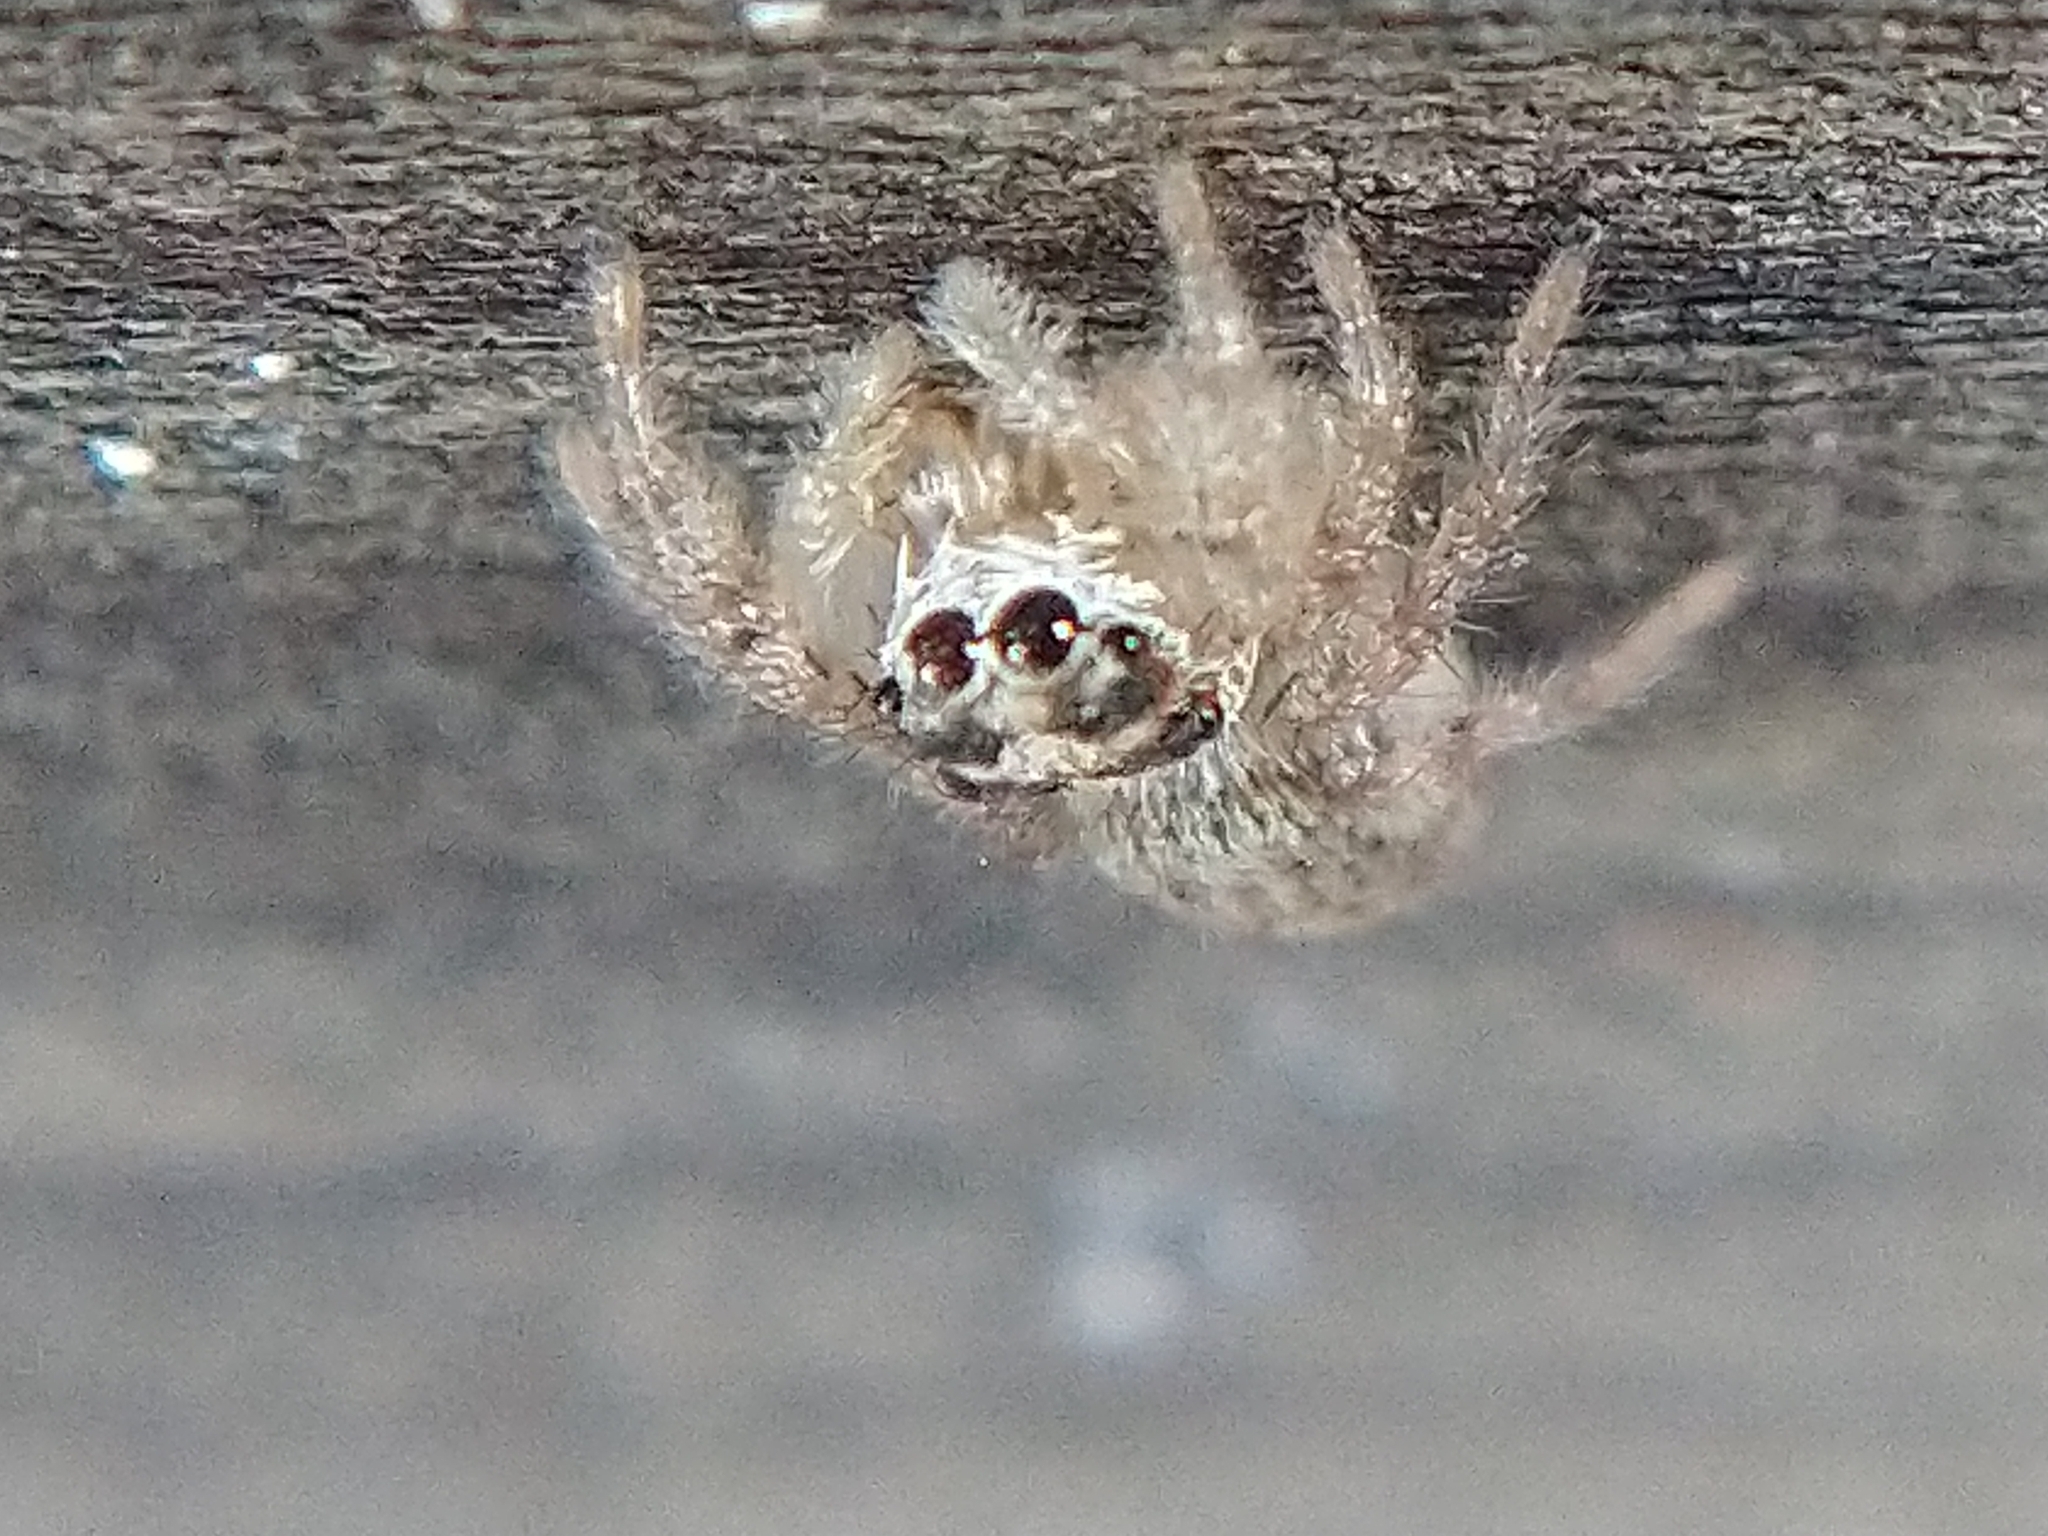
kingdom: Animalia
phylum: Arthropoda
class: Arachnida
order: Araneae
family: Salticidae
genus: Colonus
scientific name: Colonus hesperus
